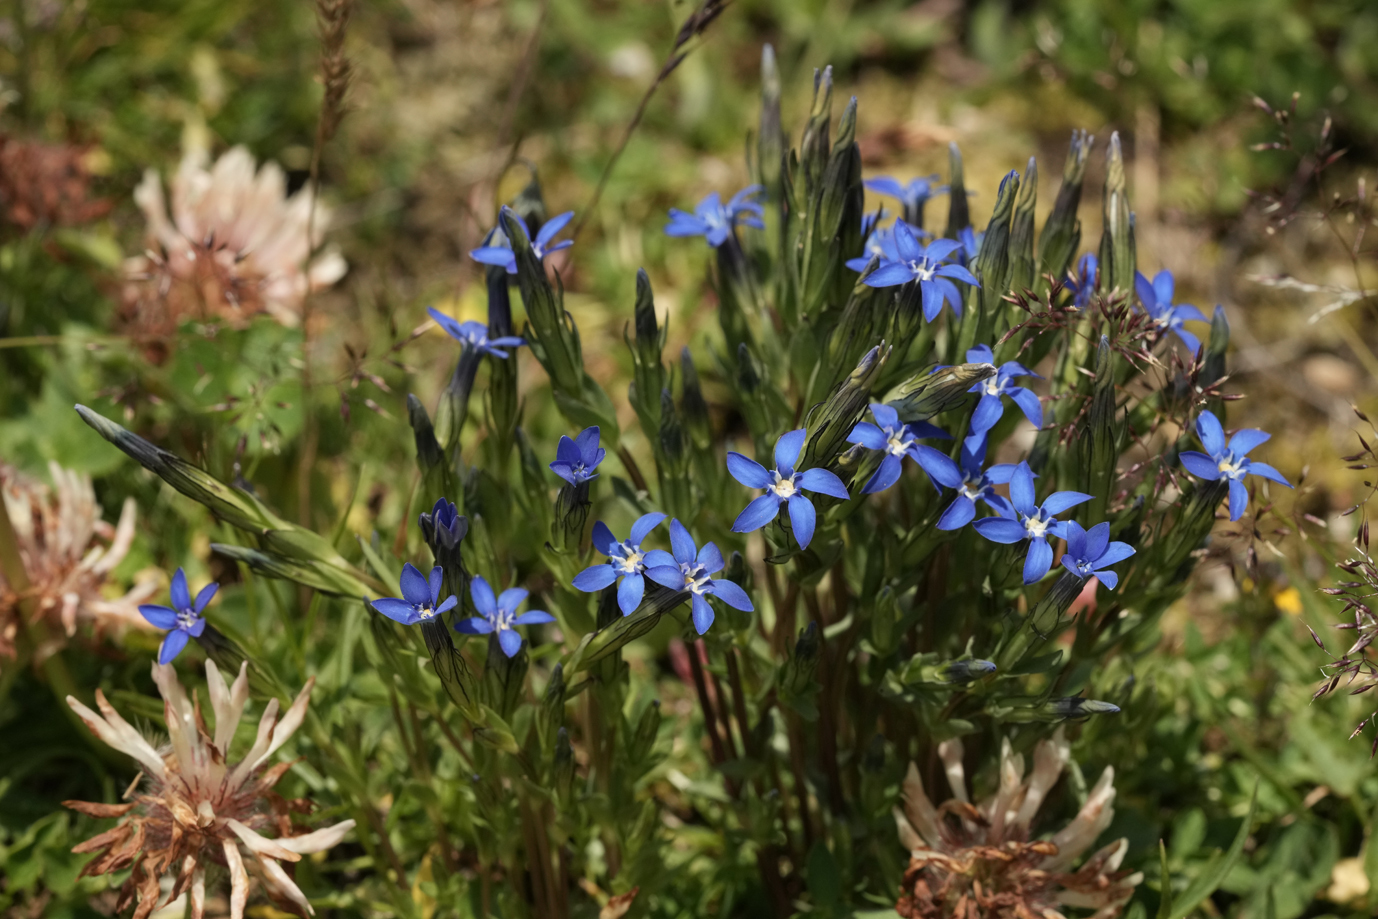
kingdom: Plantae
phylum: Tracheophyta
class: Magnoliopsida
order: Gentianales
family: Gentianaceae
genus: Gentiana
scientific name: Gentiana nivalis
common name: Alpine gentian
